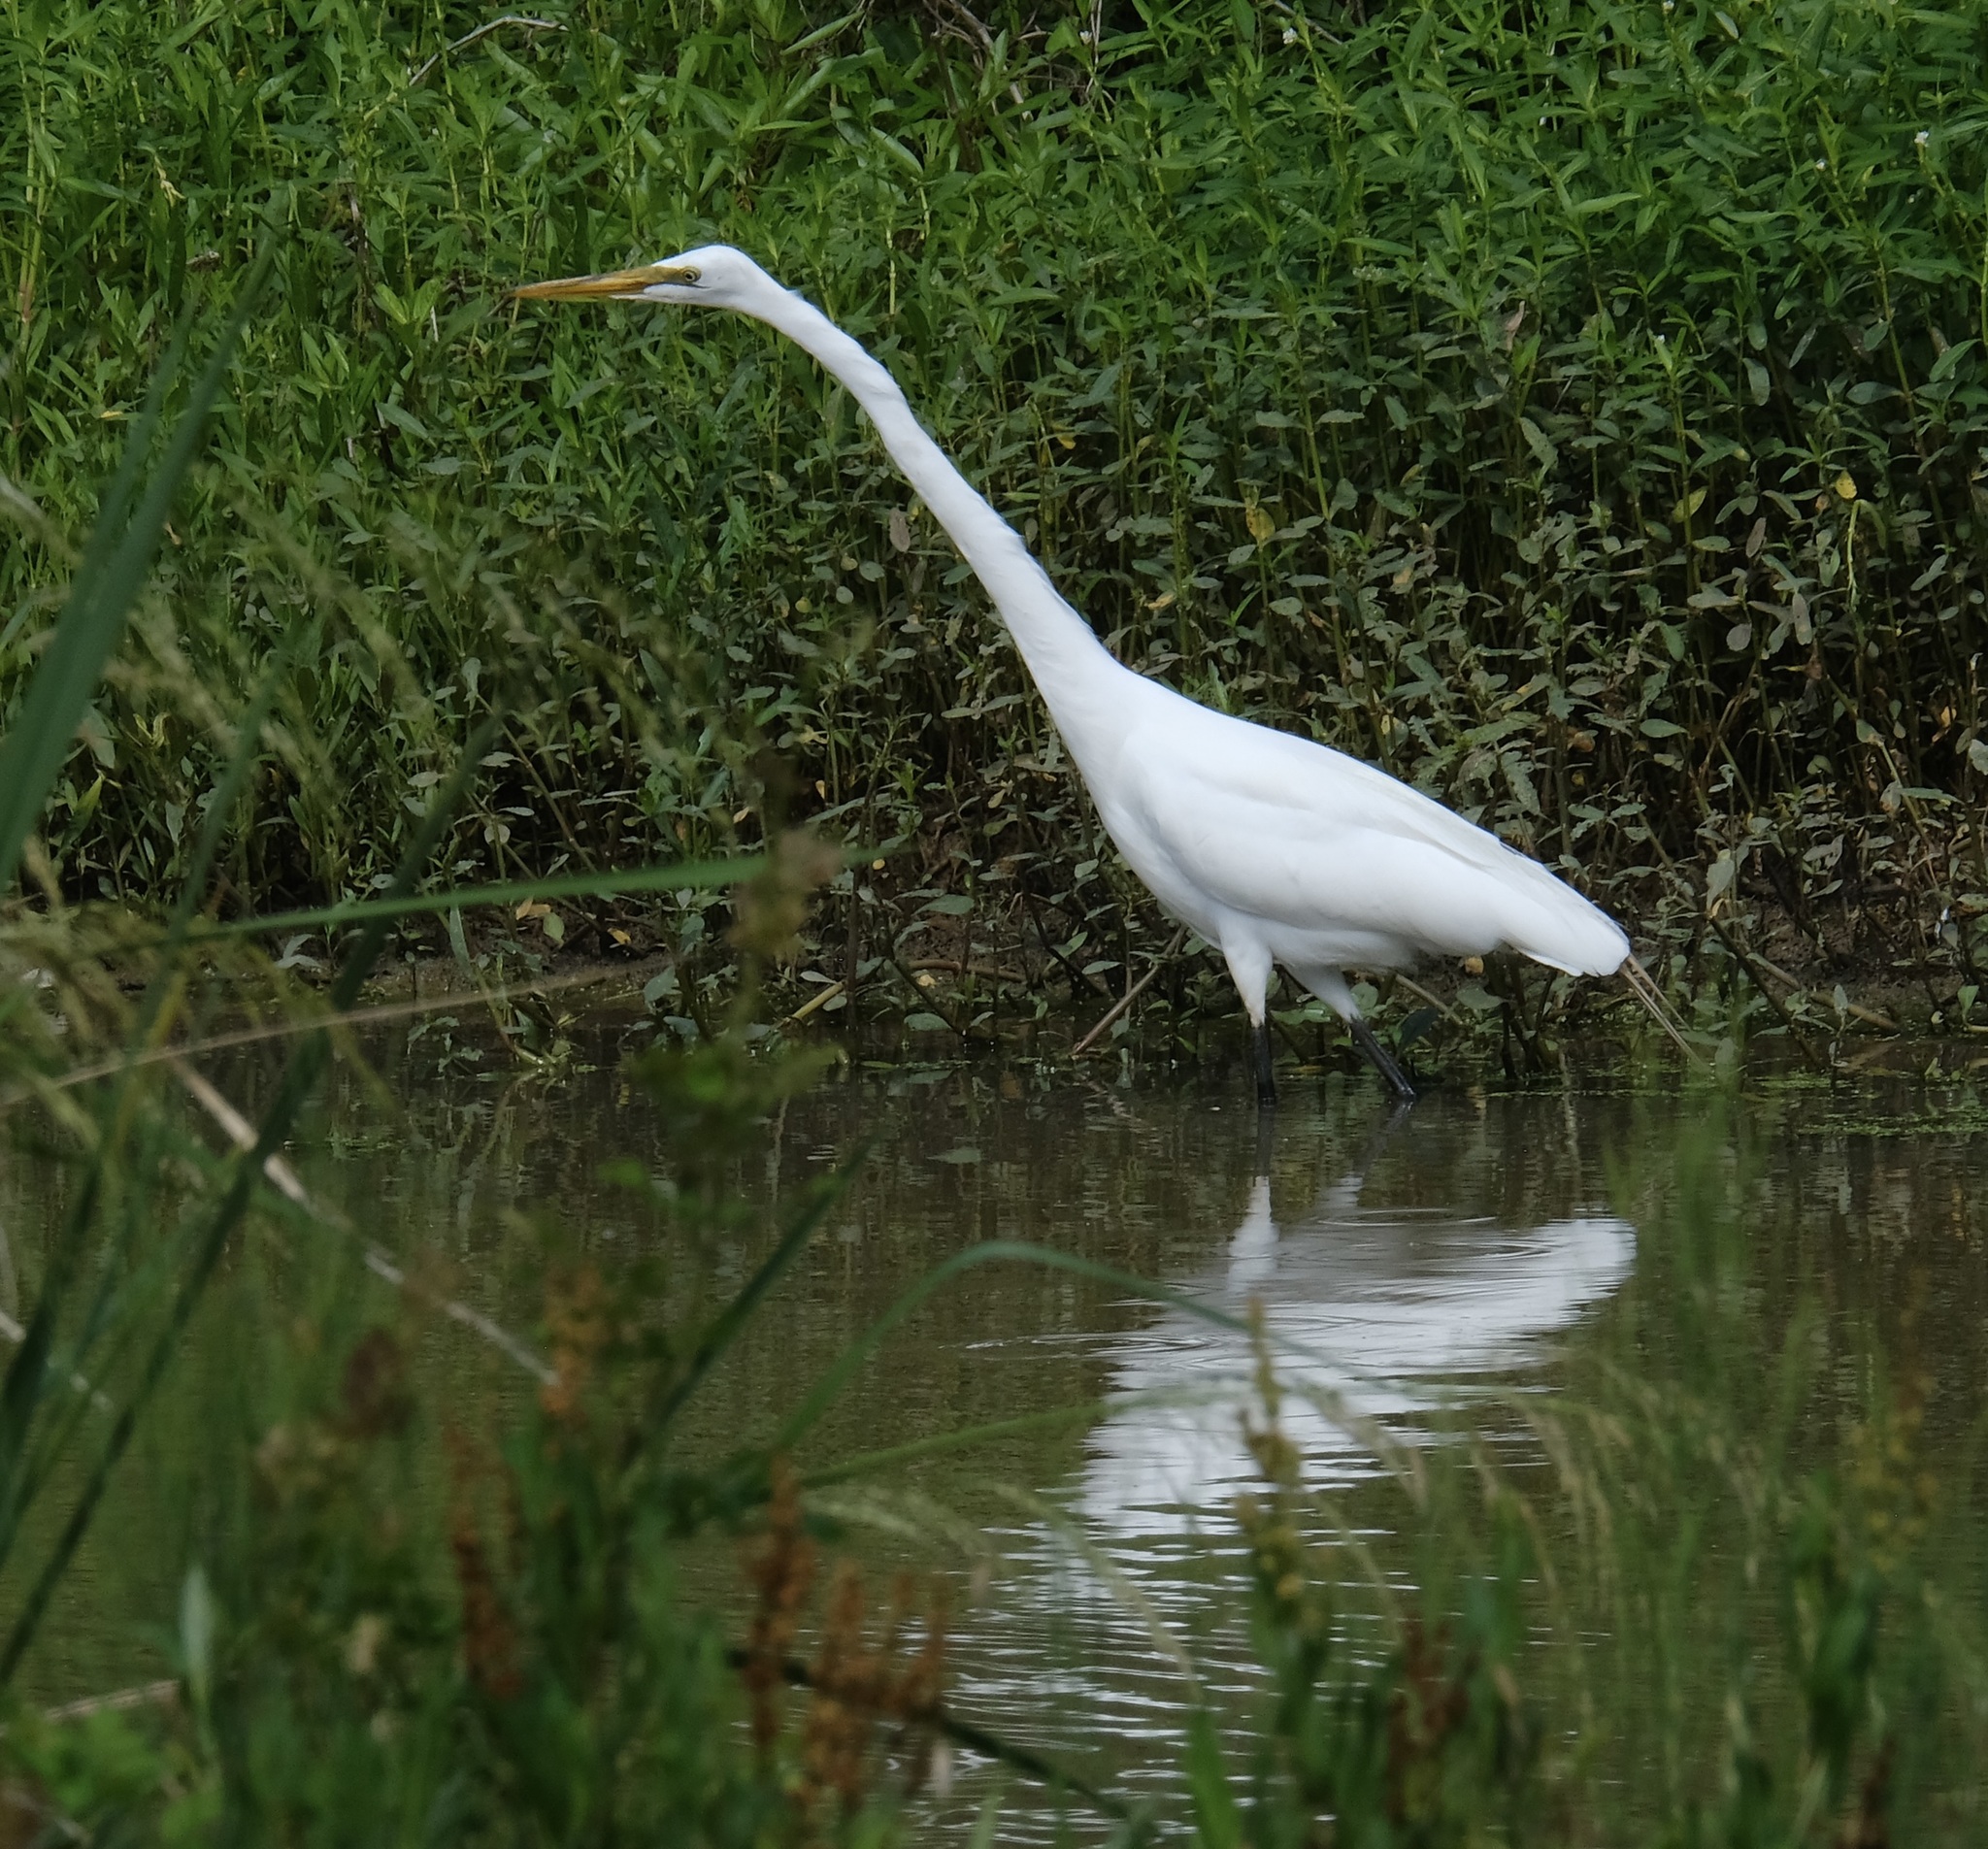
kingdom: Animalia
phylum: Chordata
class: Aves
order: Pelecaniformes
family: Ardeidae
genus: Ardea
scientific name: Ardea alba
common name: Great egret
